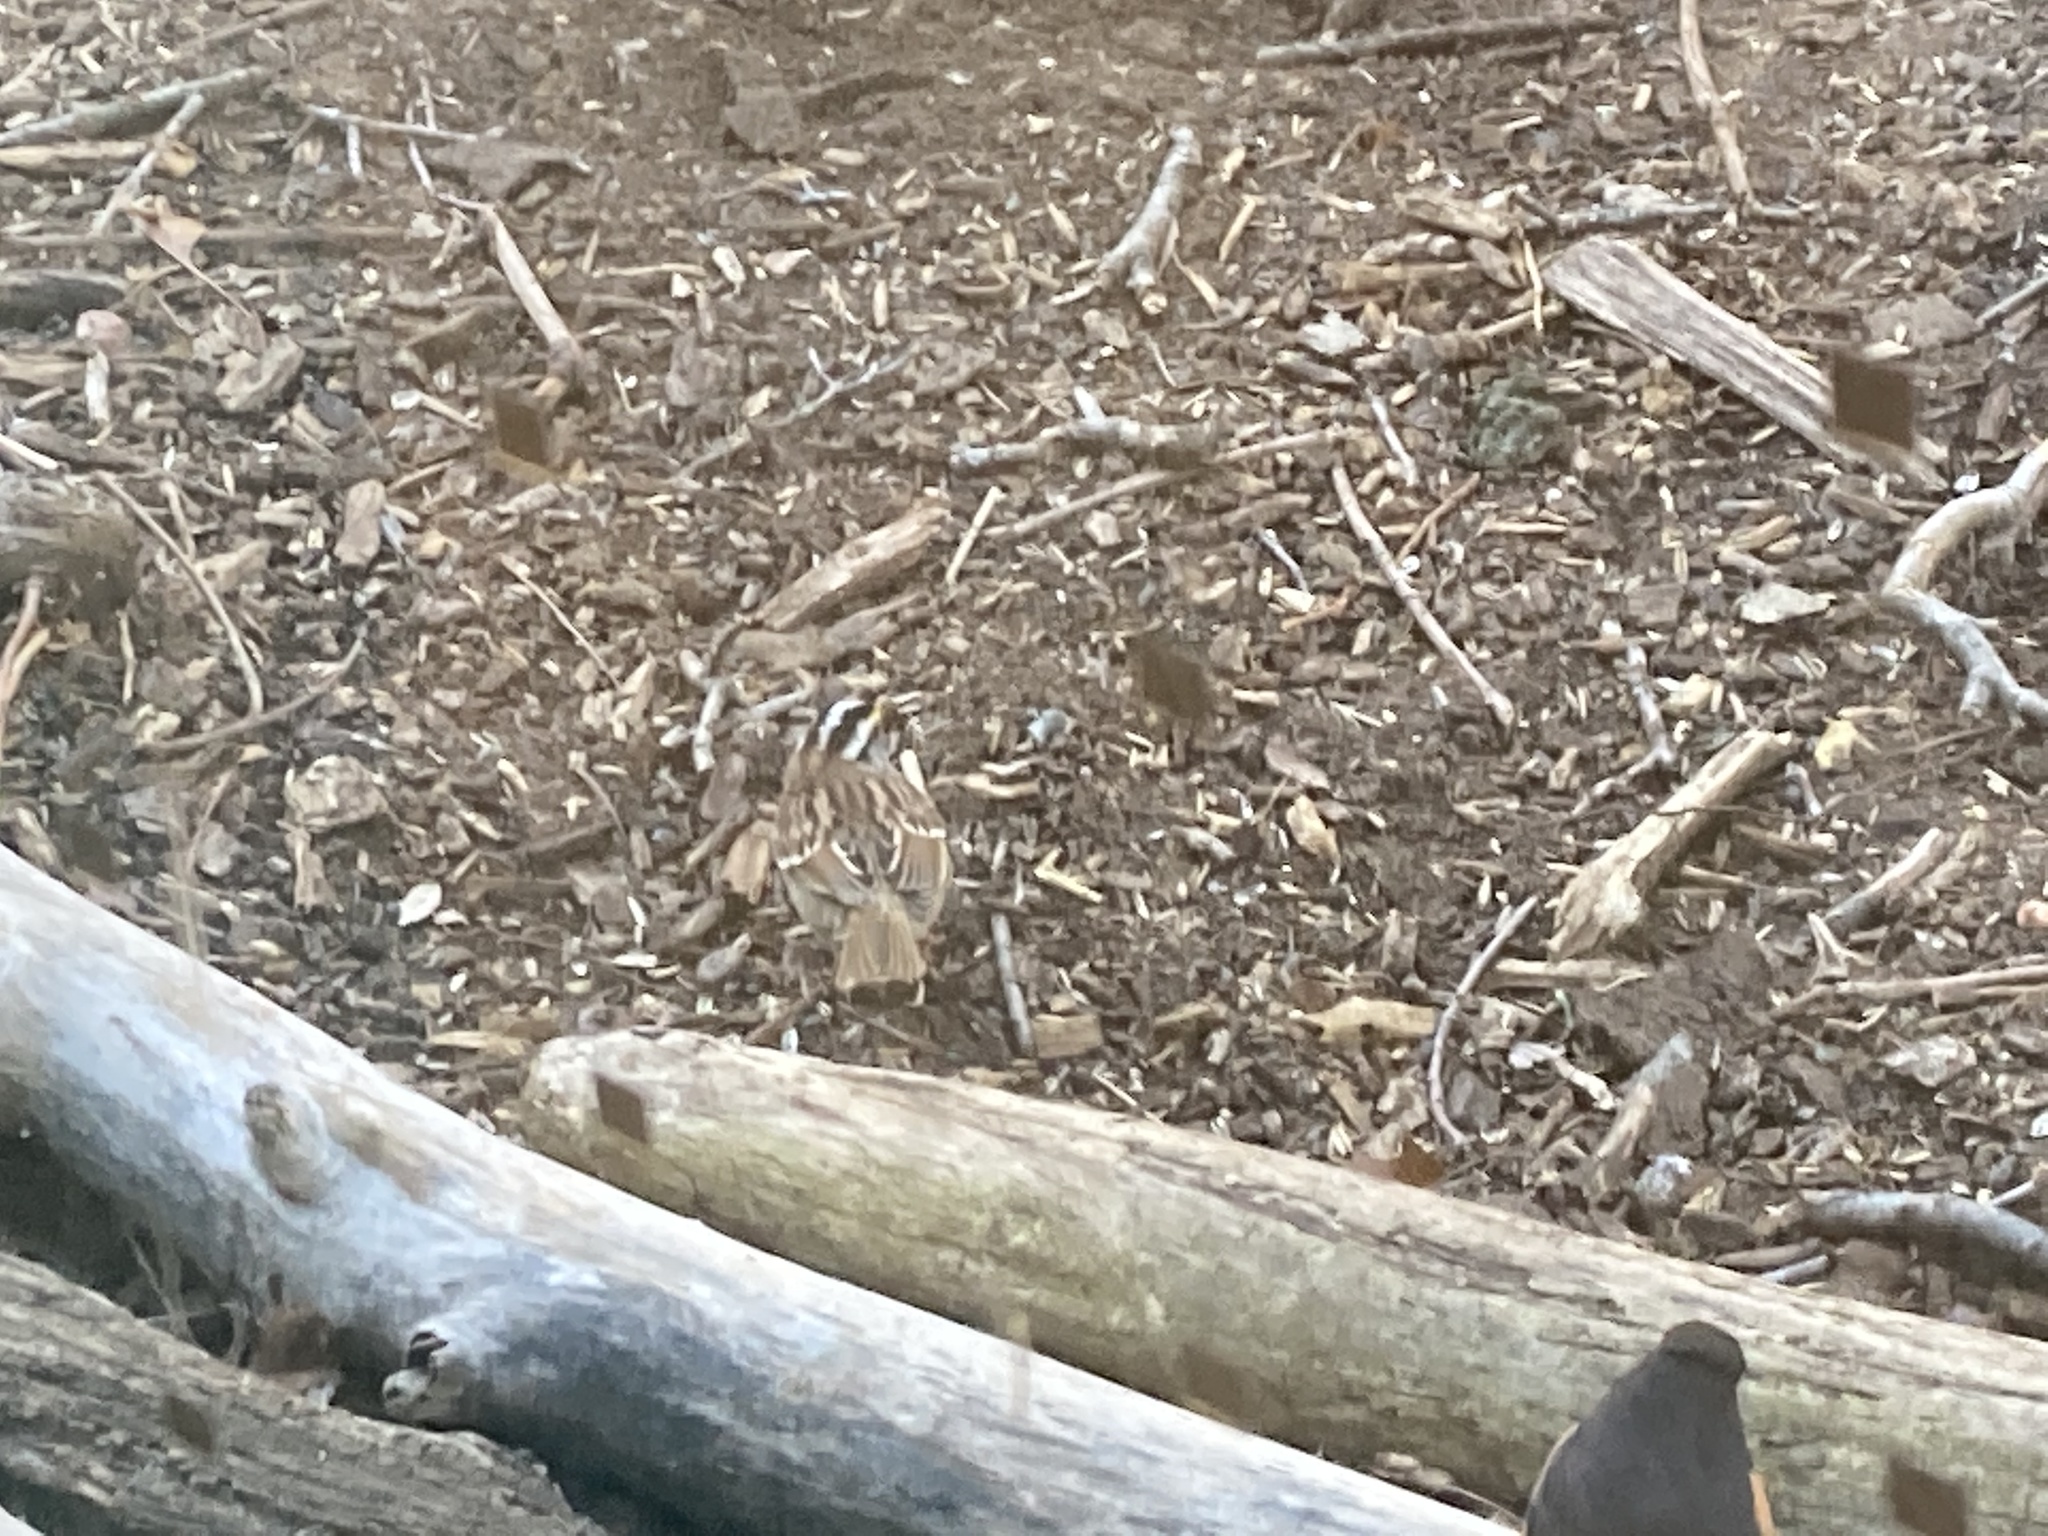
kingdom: Animalia
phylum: Chordata
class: Aves
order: Passeriformes
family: Passerellidae
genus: Zonotrichia
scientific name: Zonotrichia albicollis
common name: White-throated sparrow
